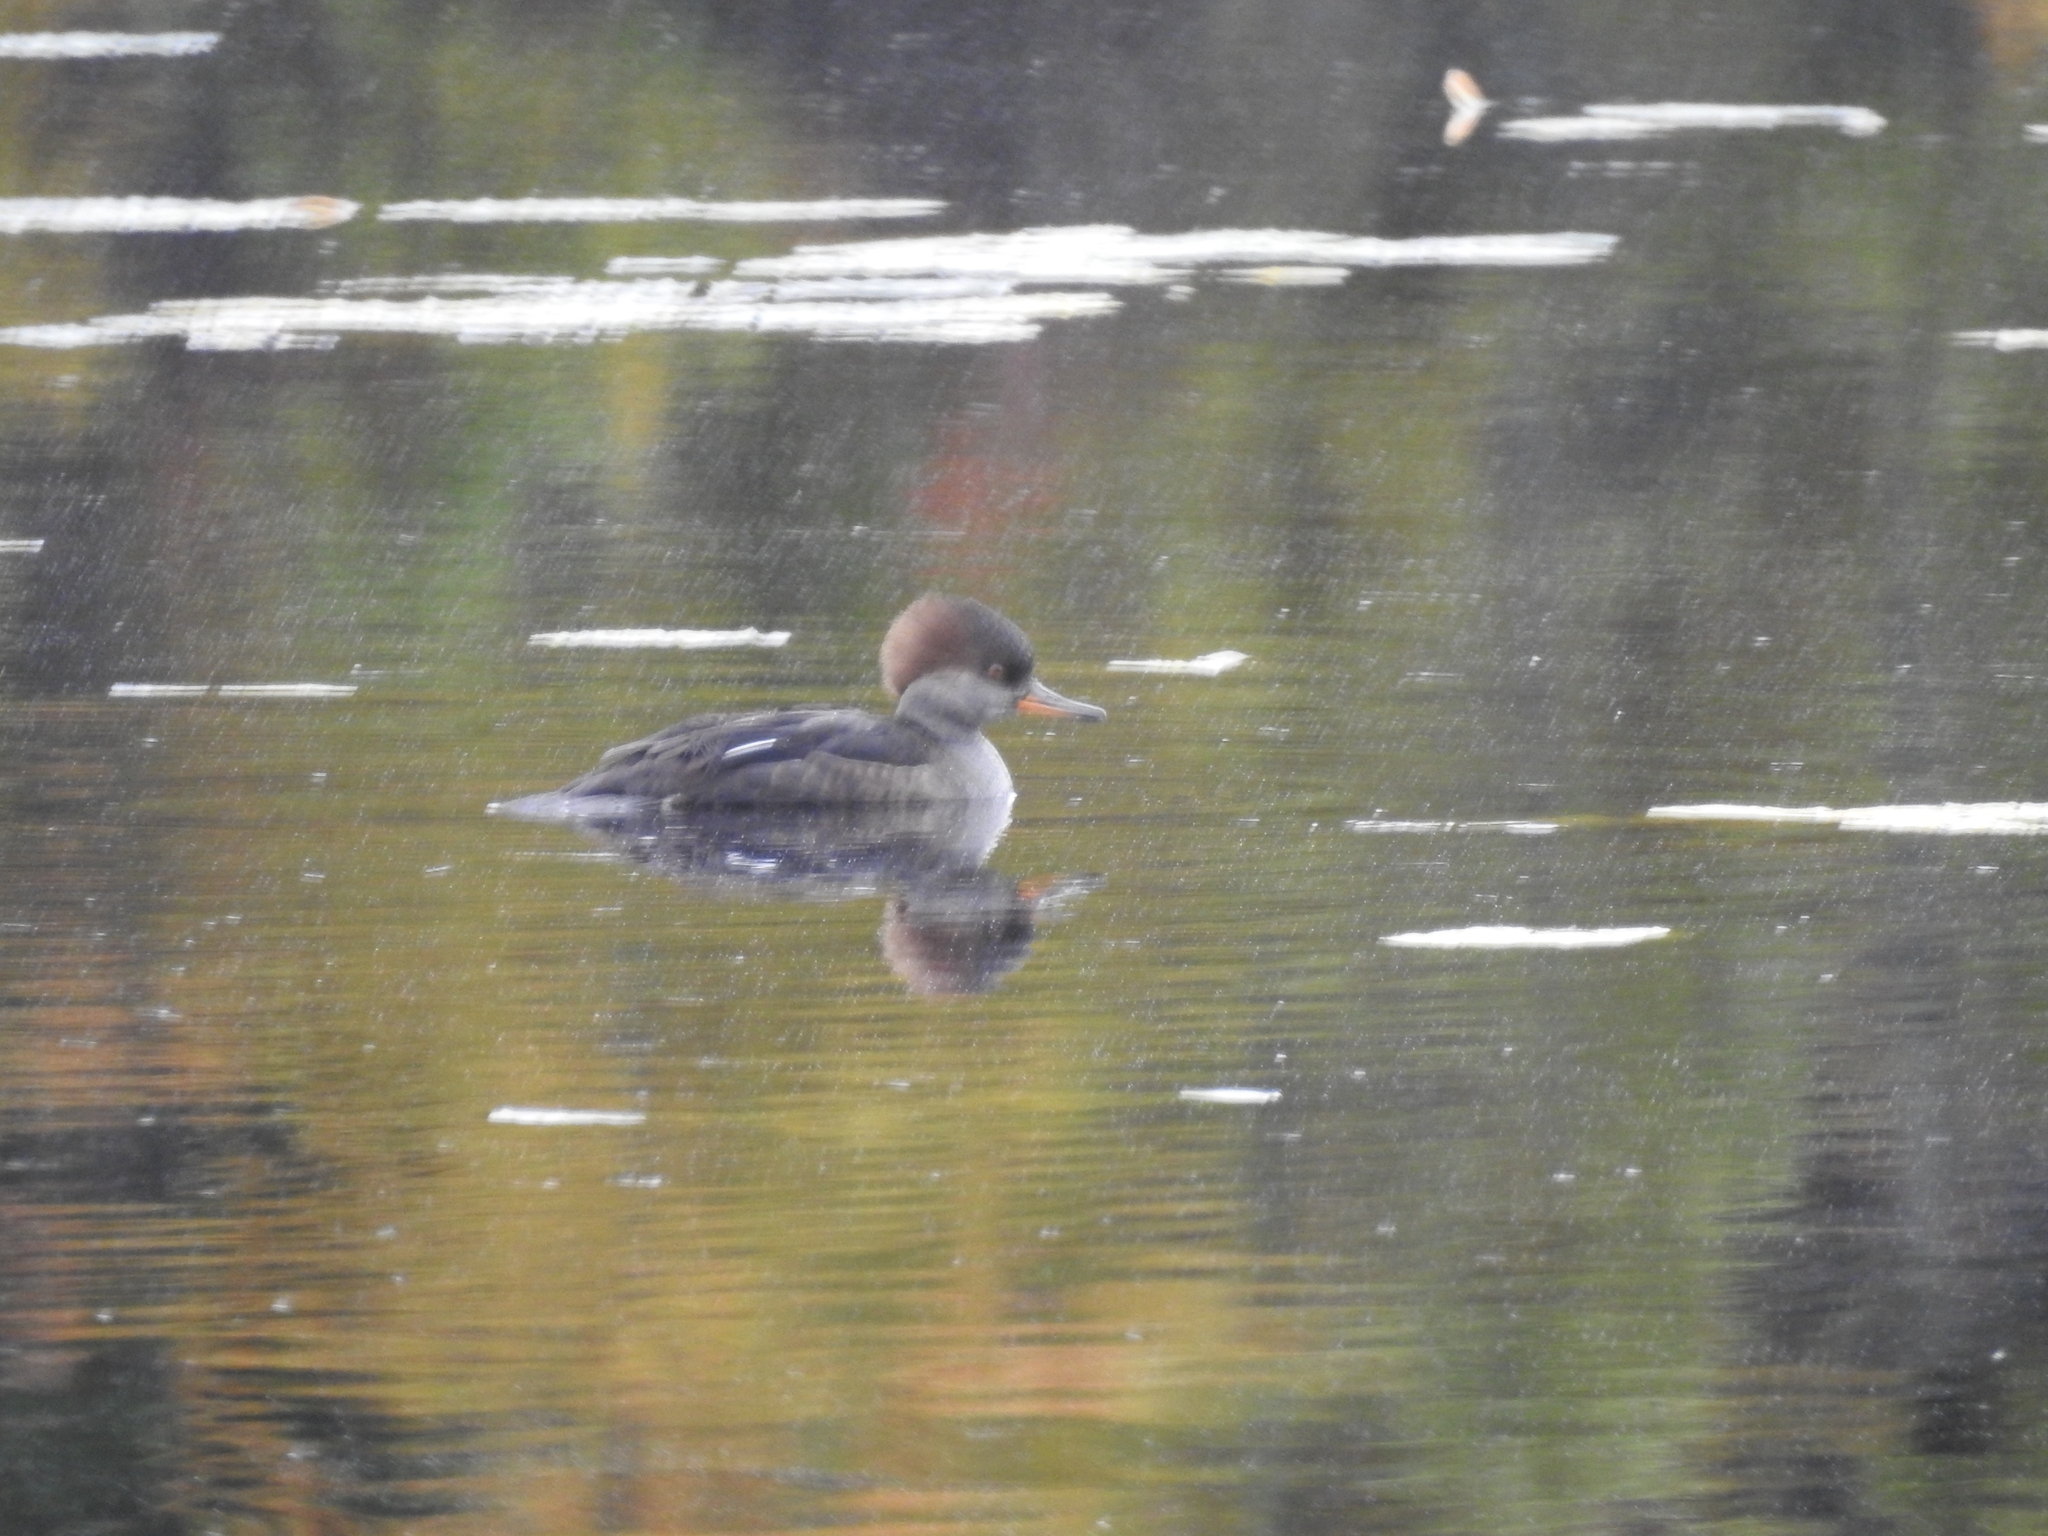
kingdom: Animalia
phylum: Chordata
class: Aves
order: Anseriformes
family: Anatidae
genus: Lophodytes
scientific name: Lophodytes cucullatus
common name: Hooded merganser
